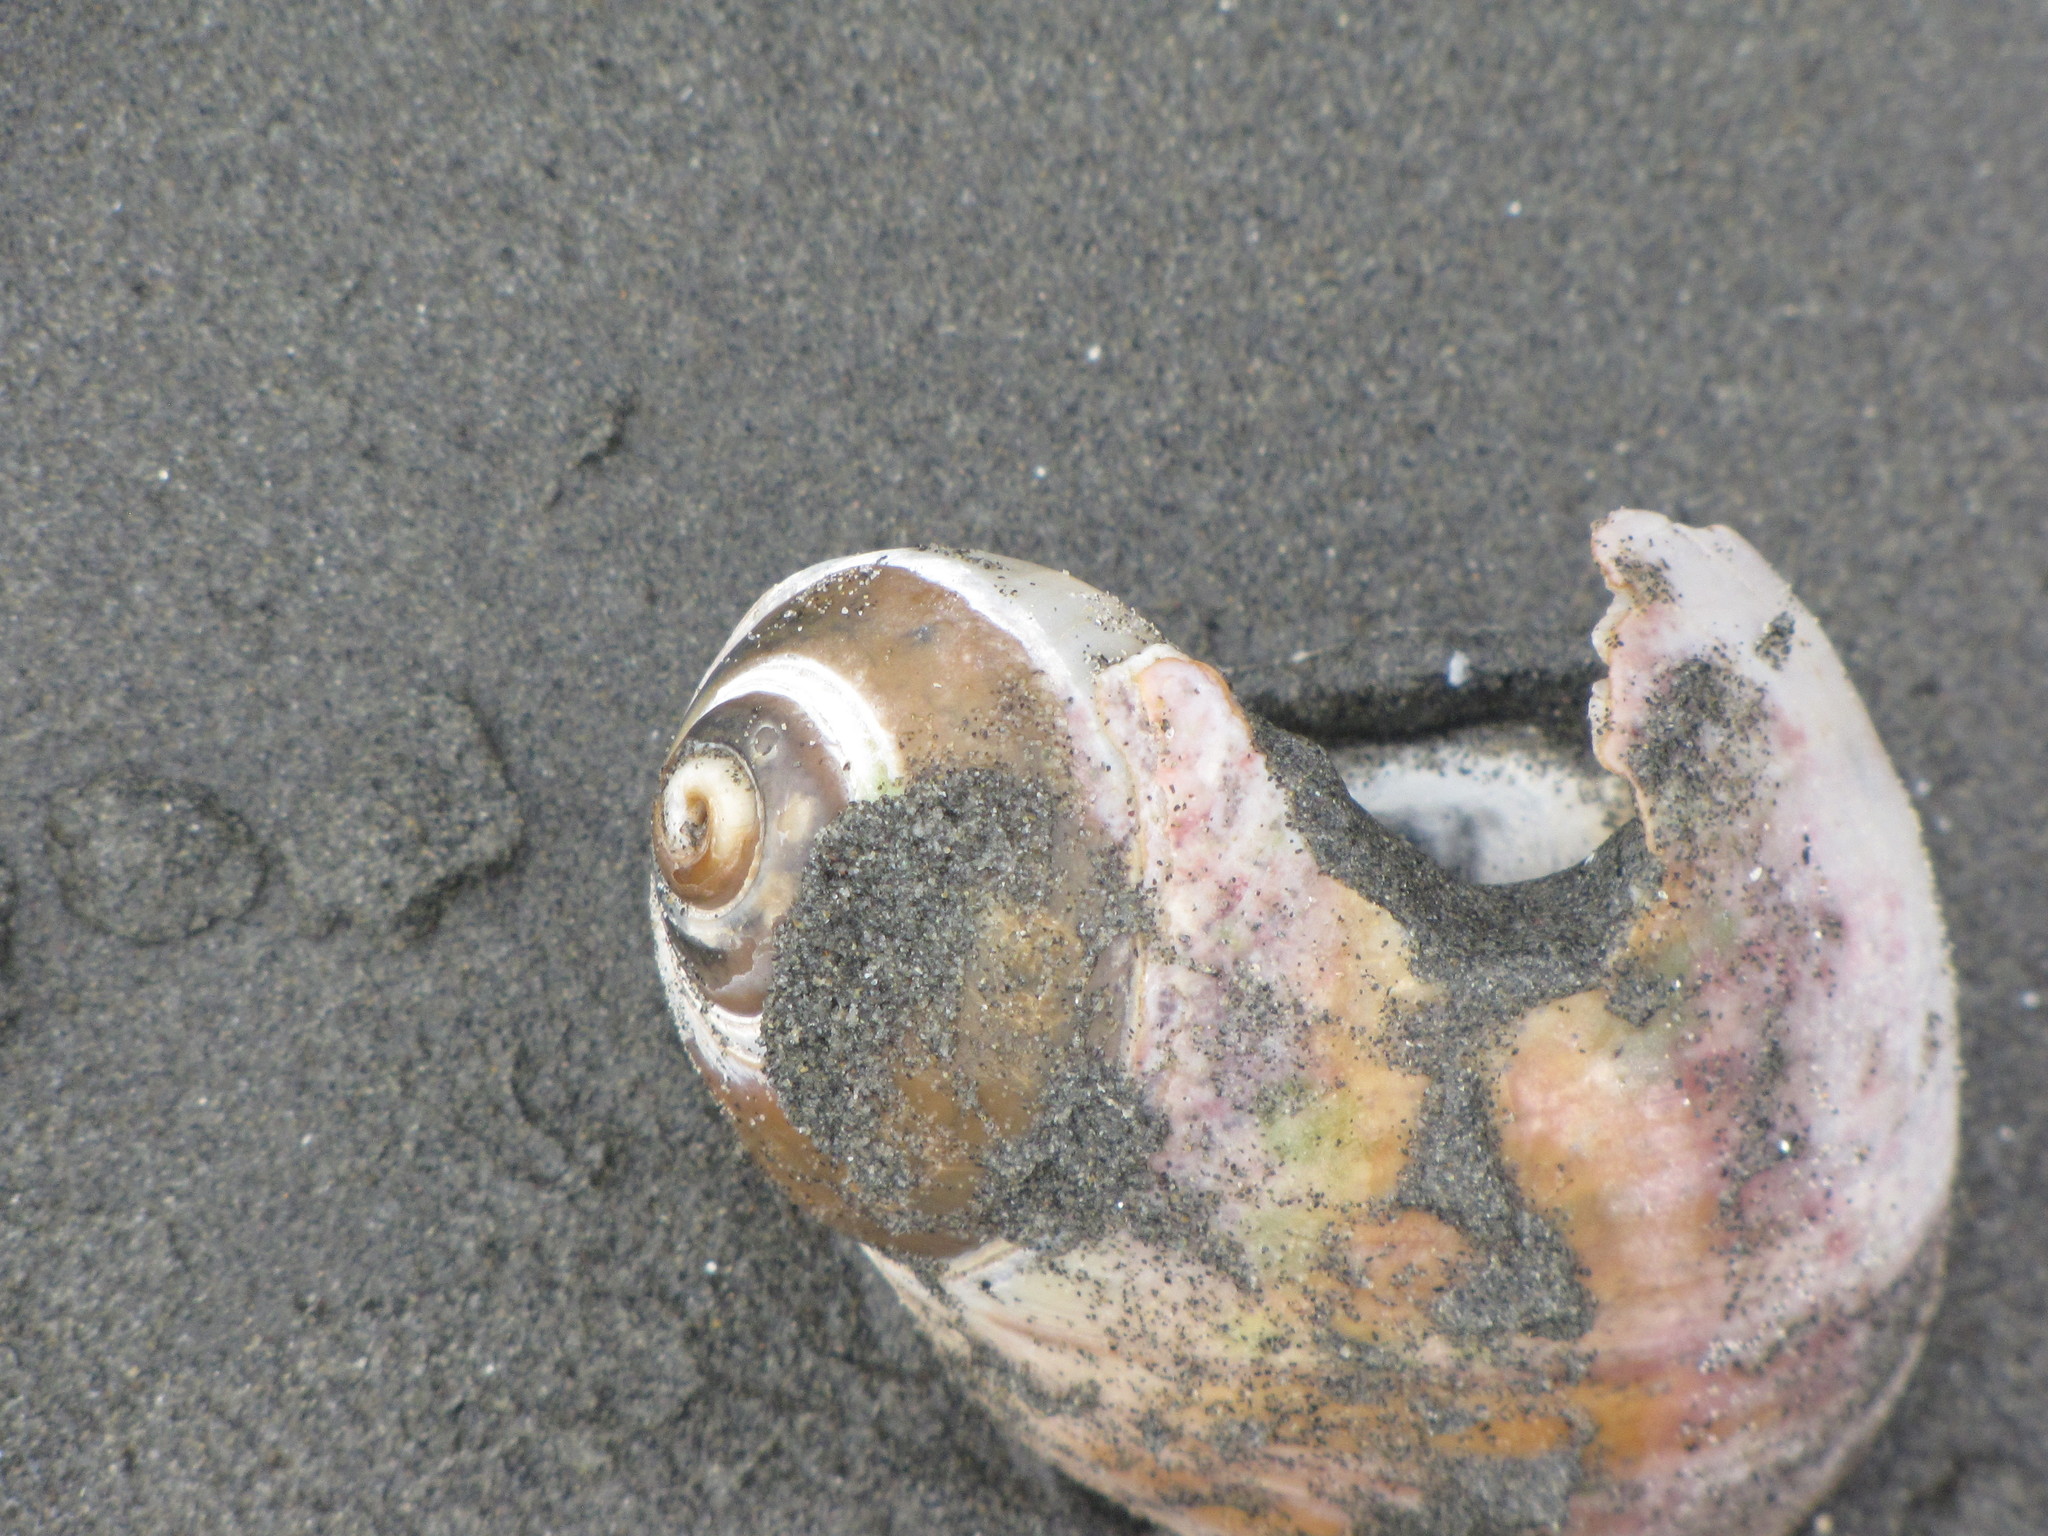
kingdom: Animalia
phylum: Mollusca
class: Gastropoda
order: Littorinimorpha
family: Naticidae
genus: Neverita
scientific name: Neverita lewisii
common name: Lewis' moonsnail
